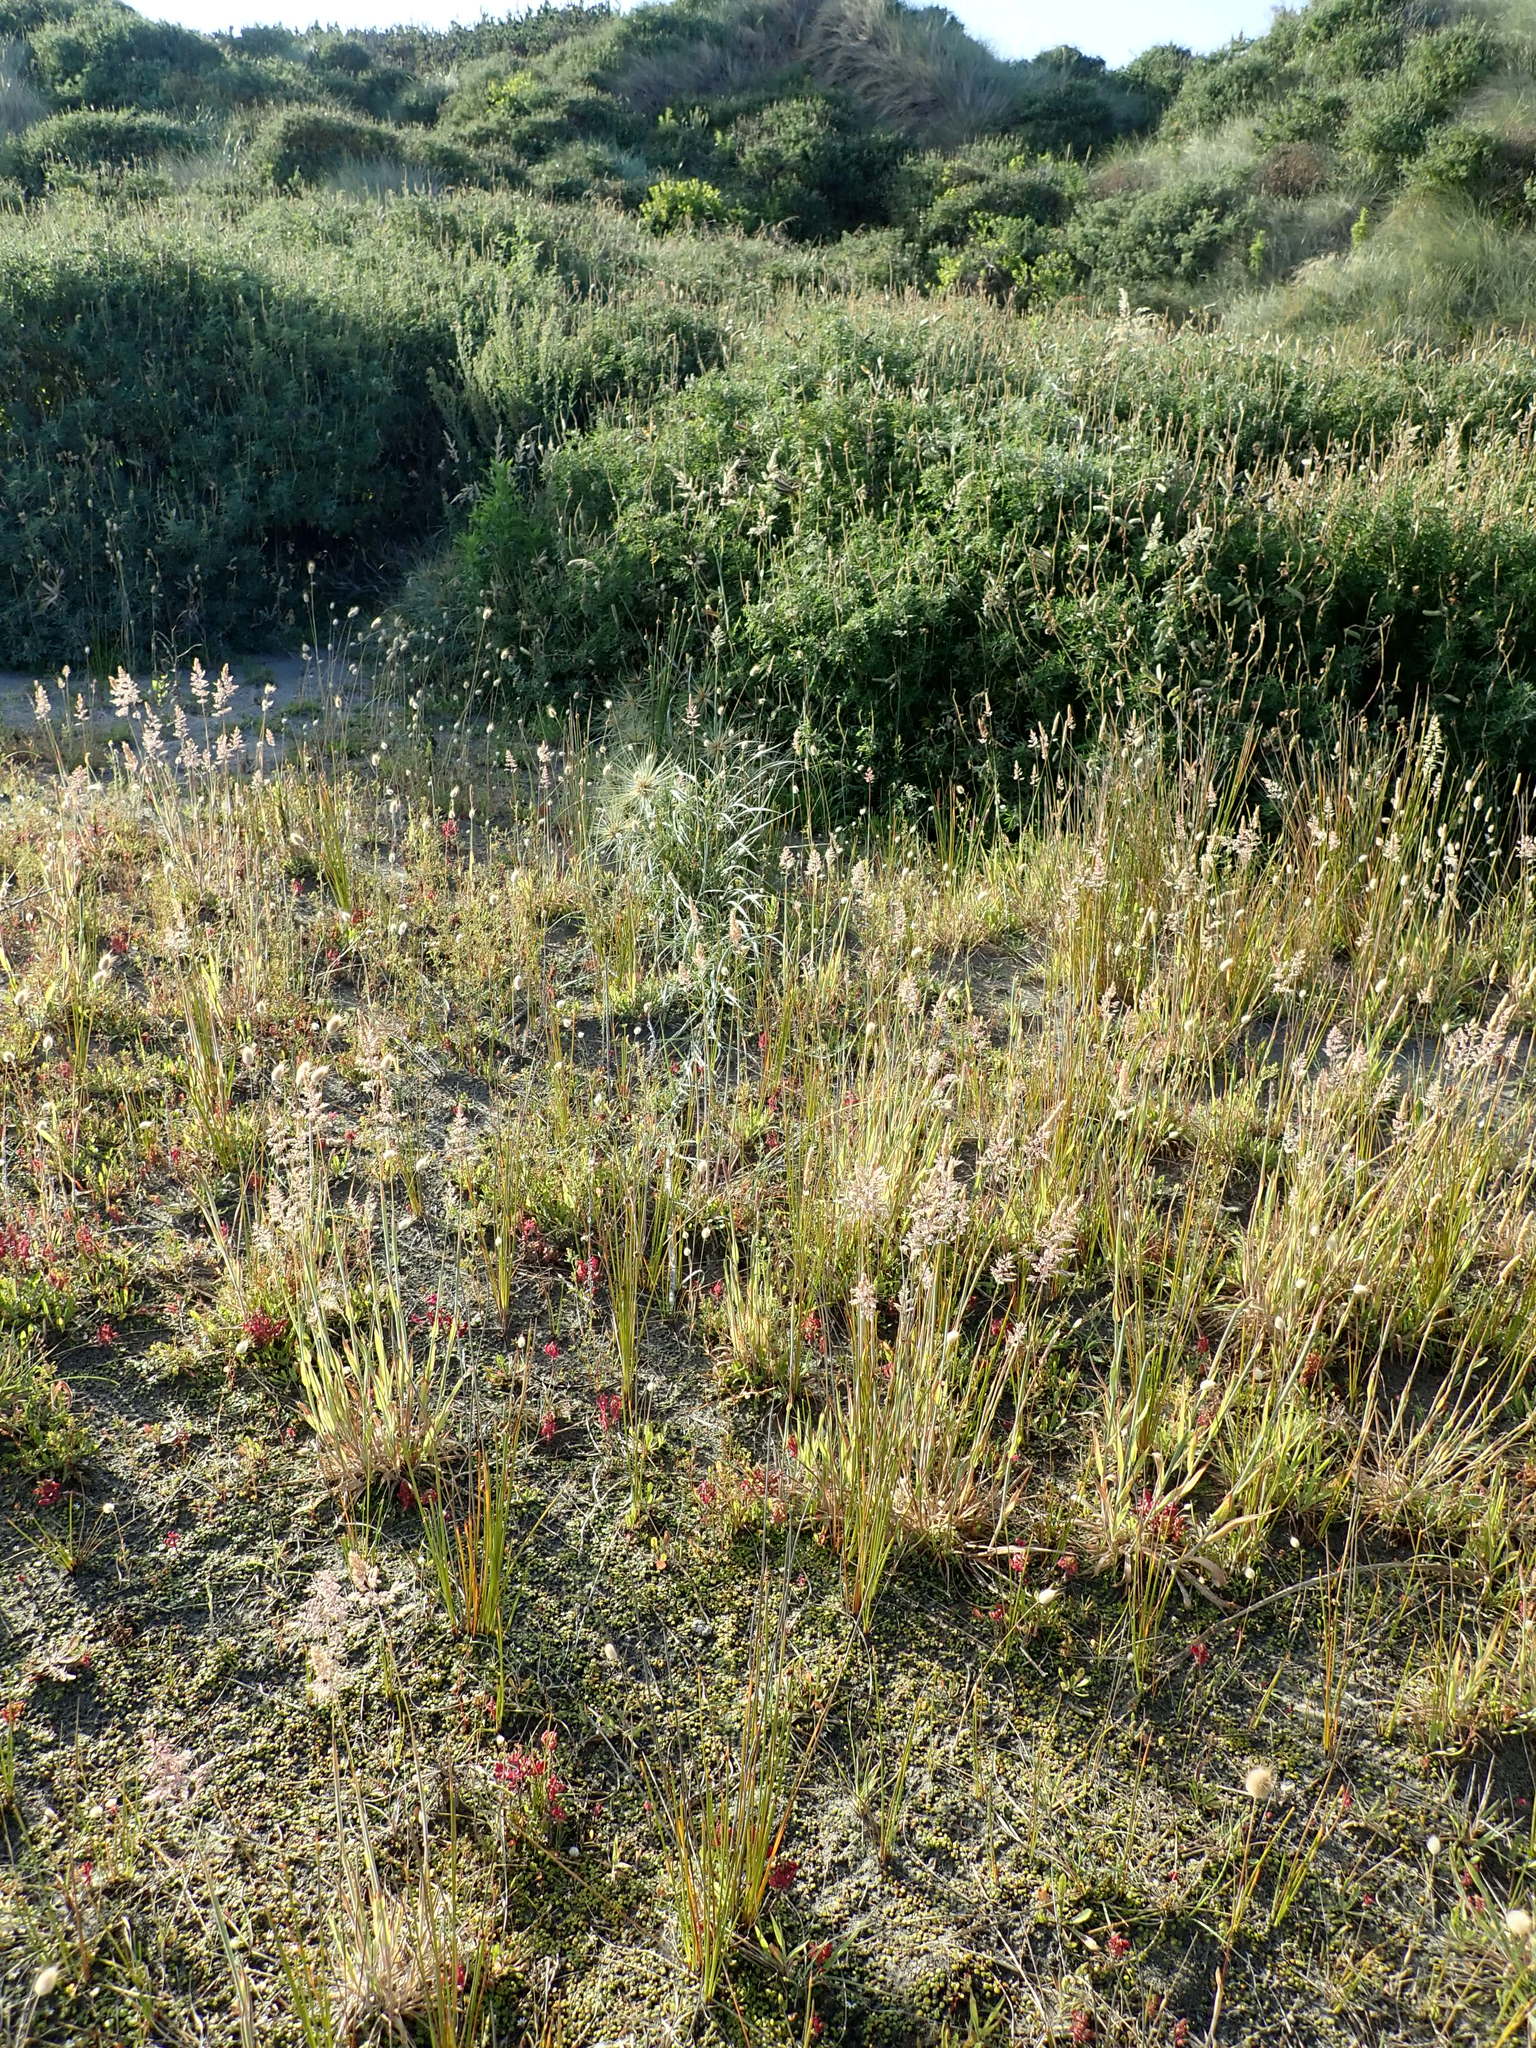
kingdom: Plantae
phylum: Tracheophyta
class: Liliopsida
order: Poales
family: Poaceae
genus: Spinifex
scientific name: Spinifex sericeus
